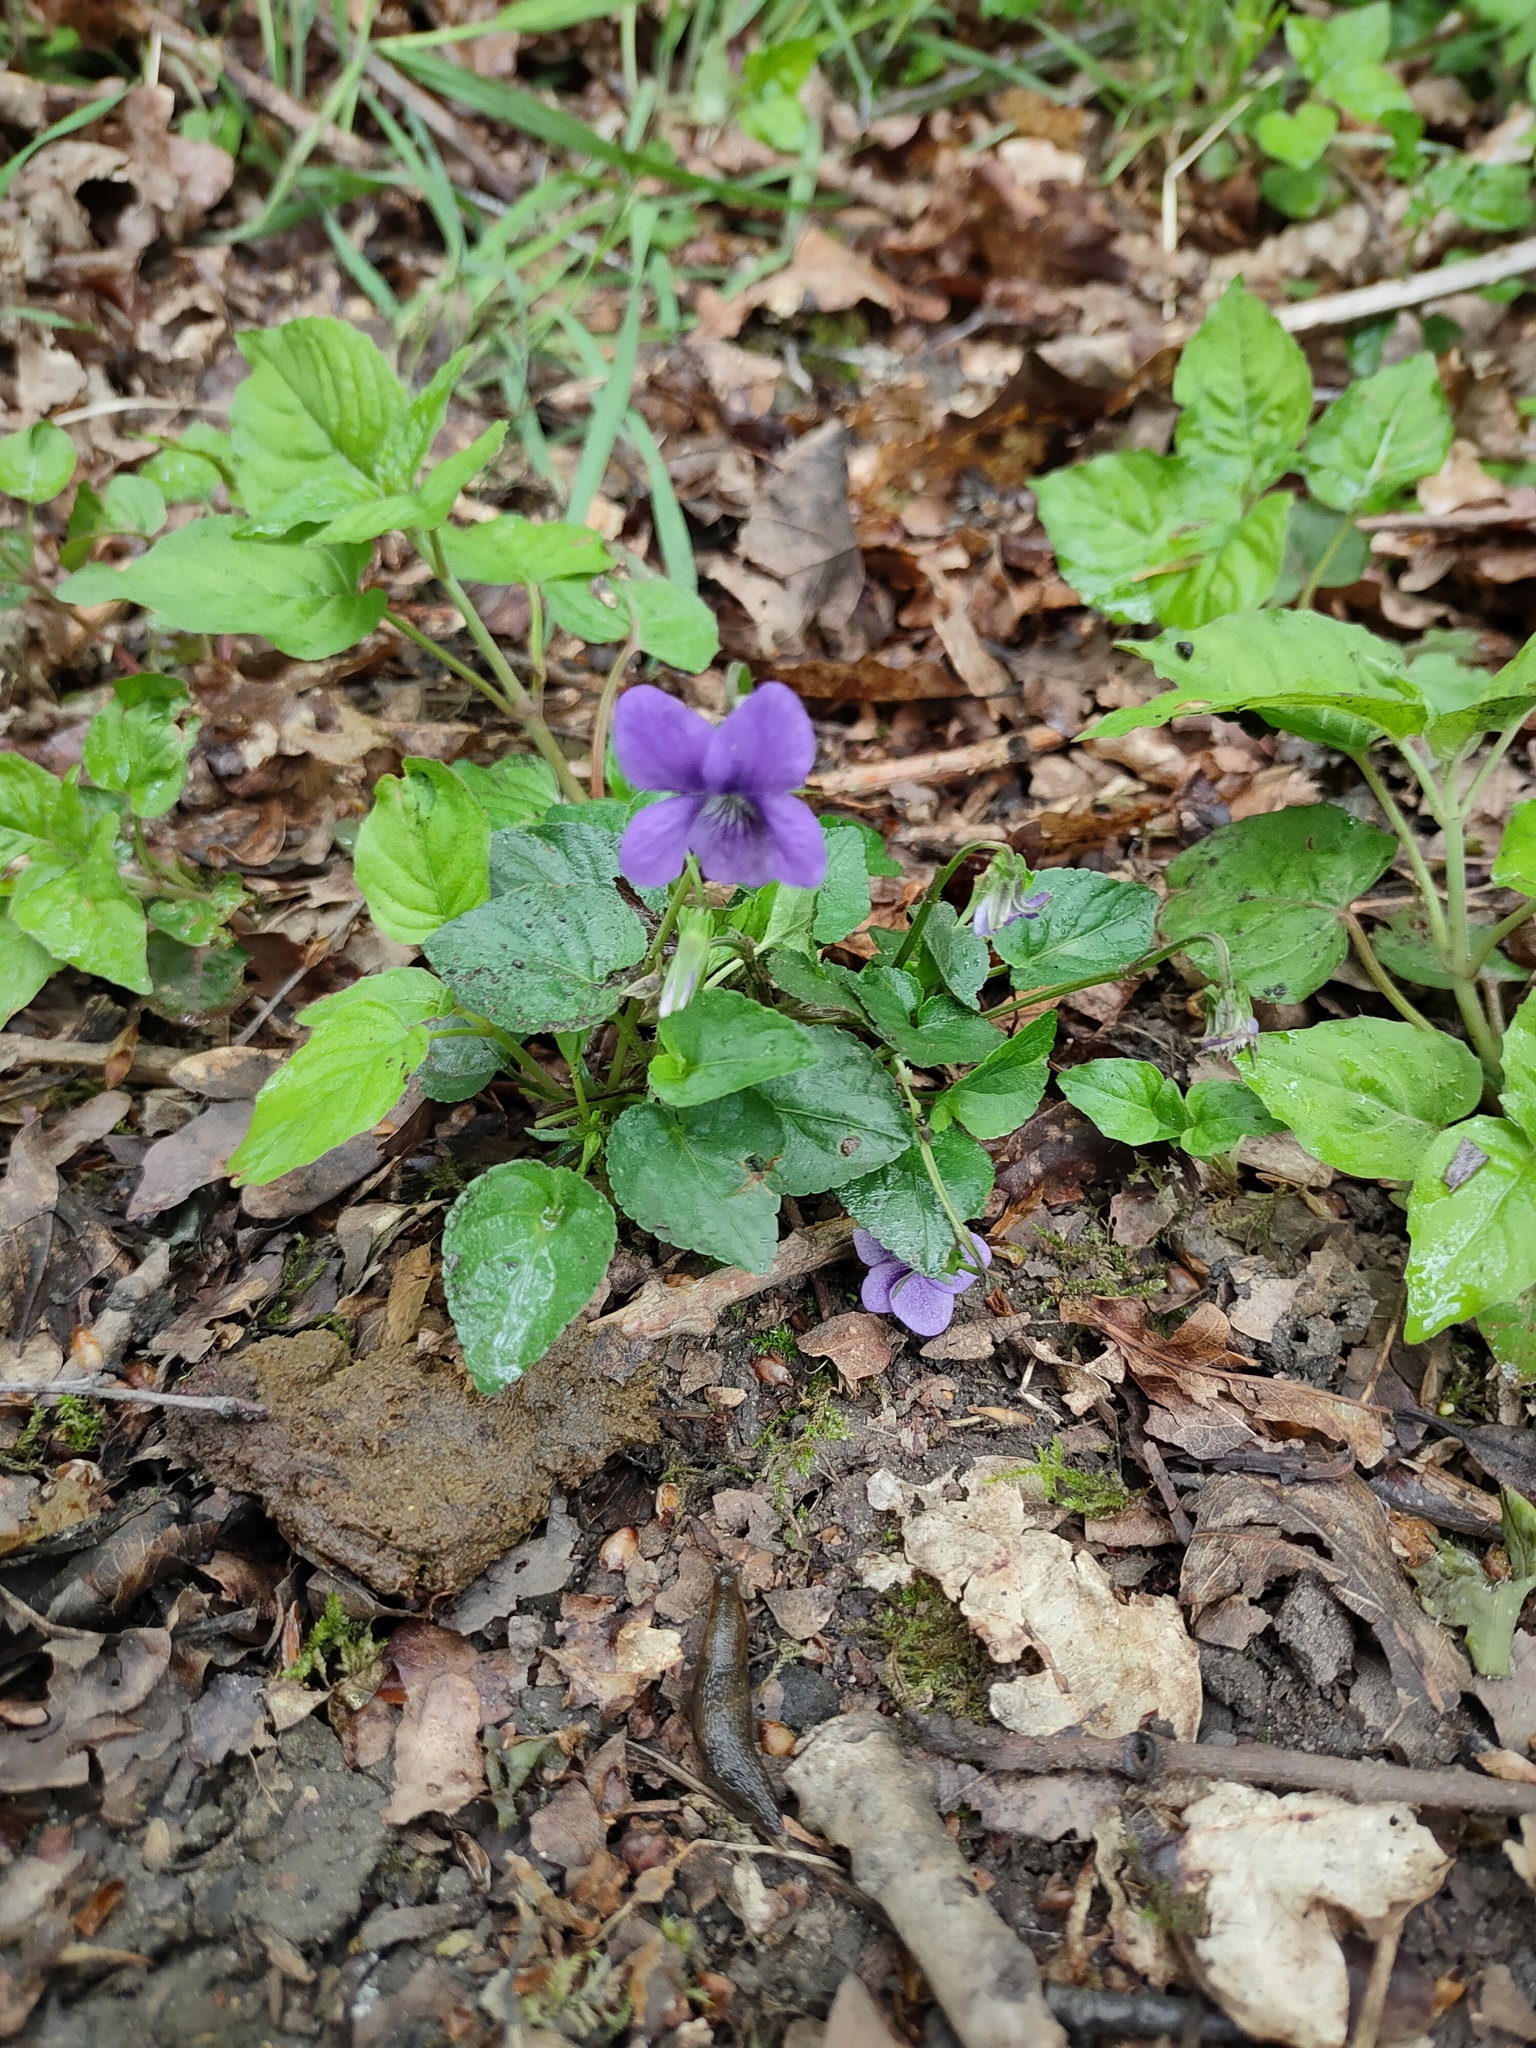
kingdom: Plantae
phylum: Tracheophyta
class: Magnoliopsida
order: Malpighiales
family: Violaceae
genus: Viola
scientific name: Viola riviniana
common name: Common dog-violet
